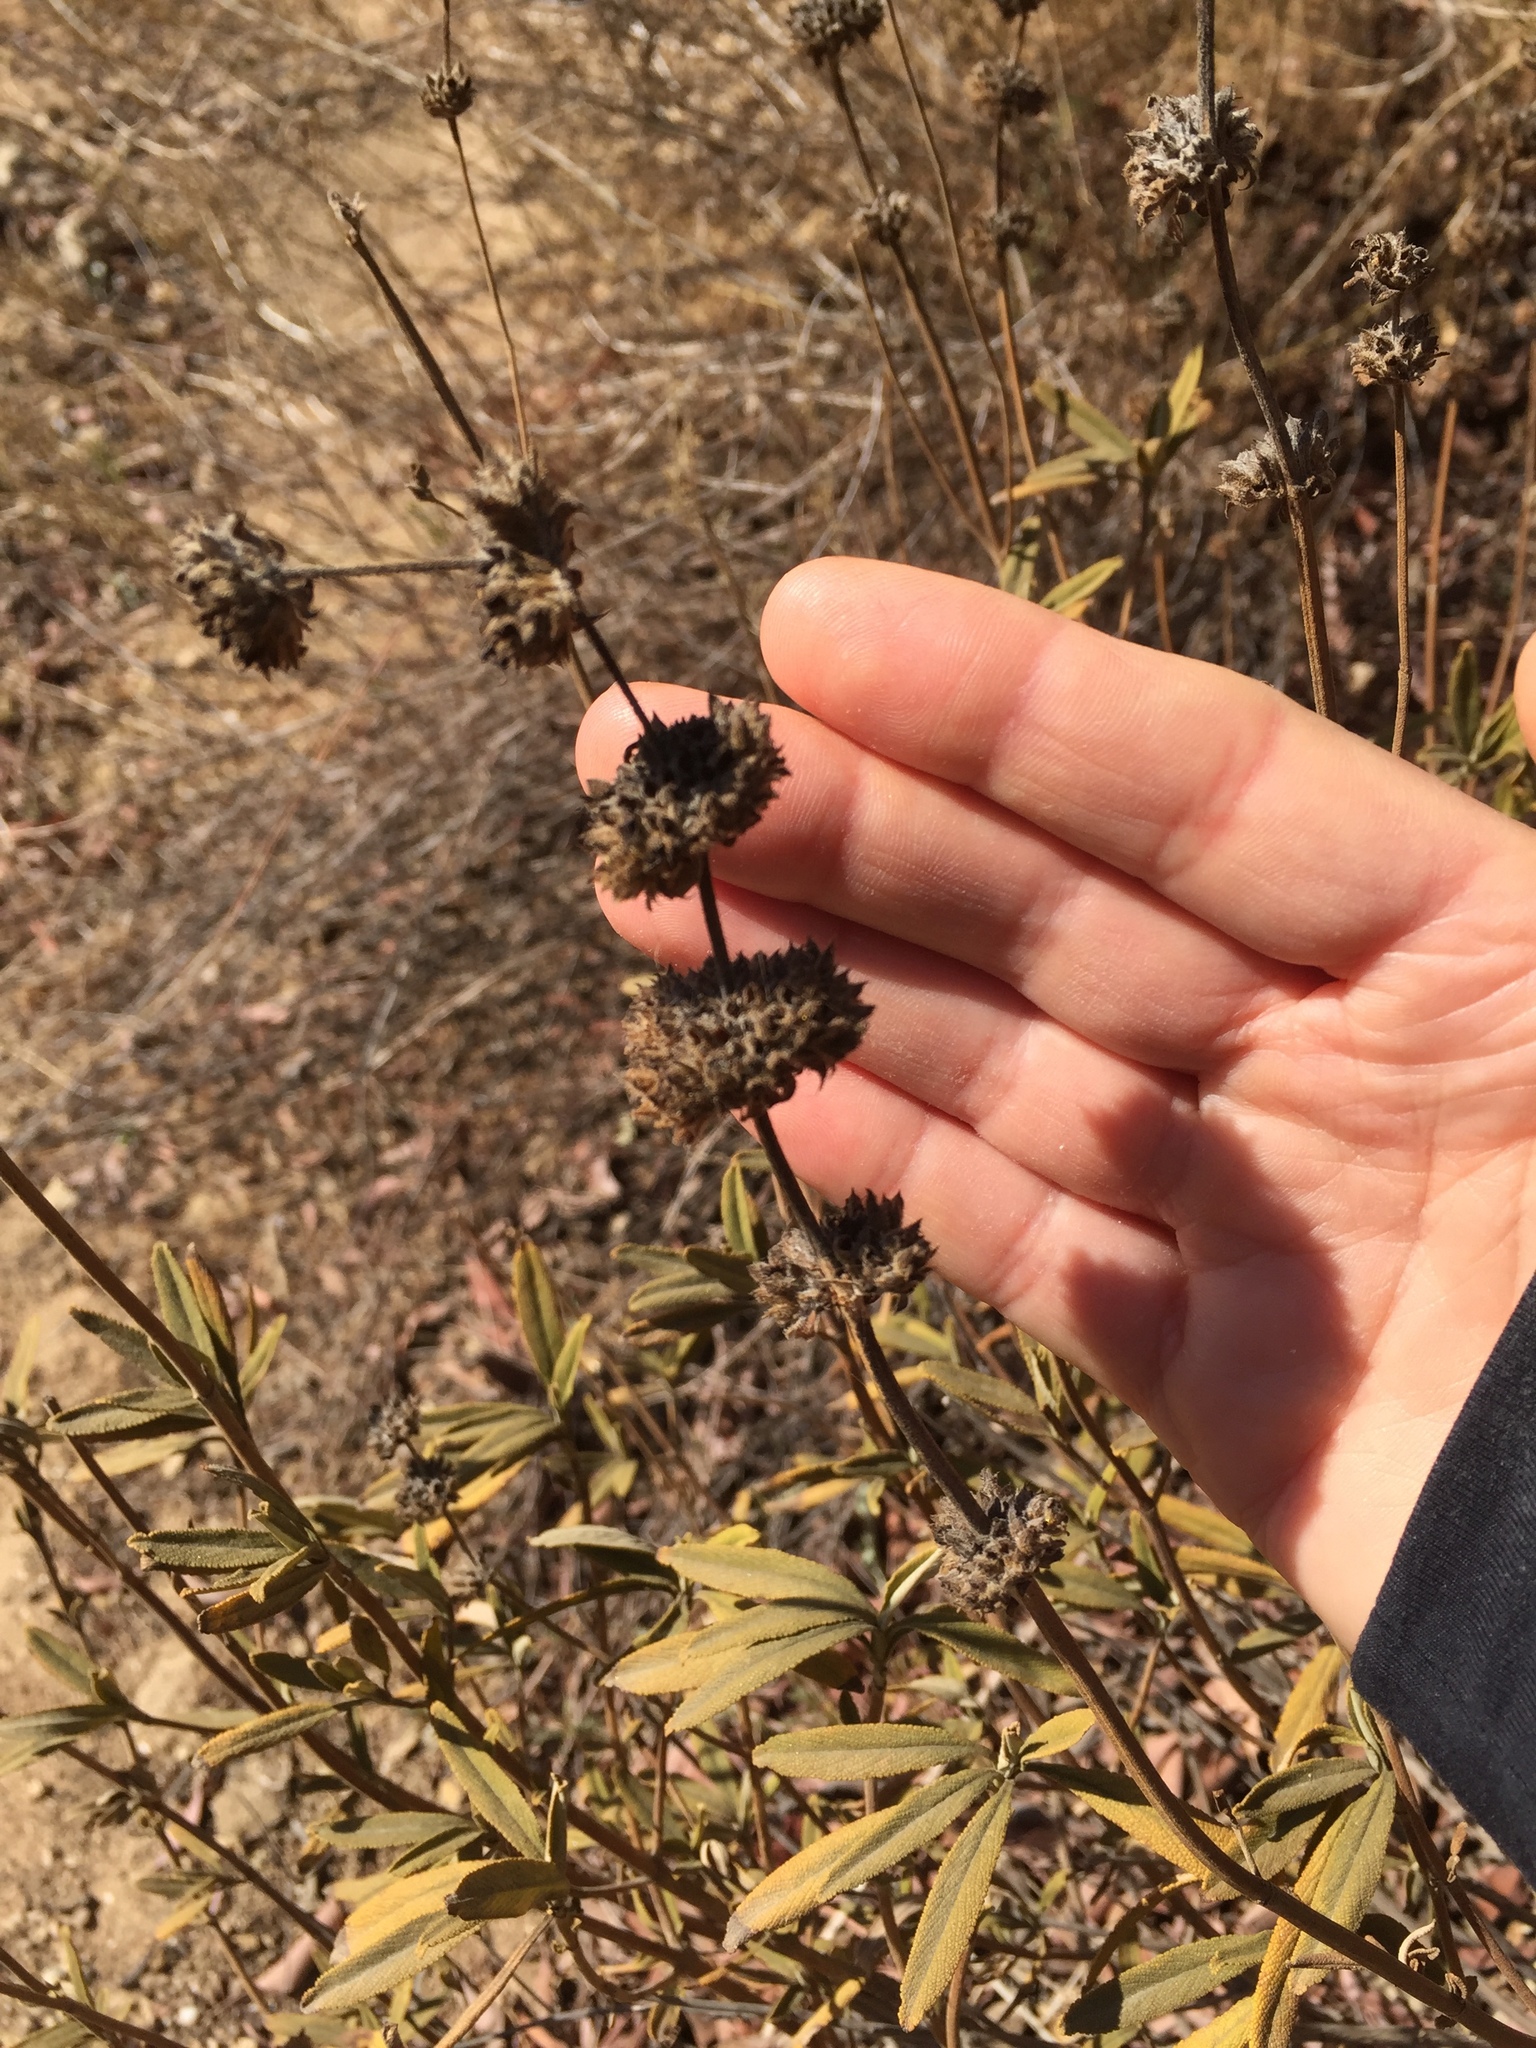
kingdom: Plantae
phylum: Tracheophyta
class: Magnoliopsida
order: Lamiales
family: Lamiaceae
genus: Salvia
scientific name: Salvia mellifera
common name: Black sage
